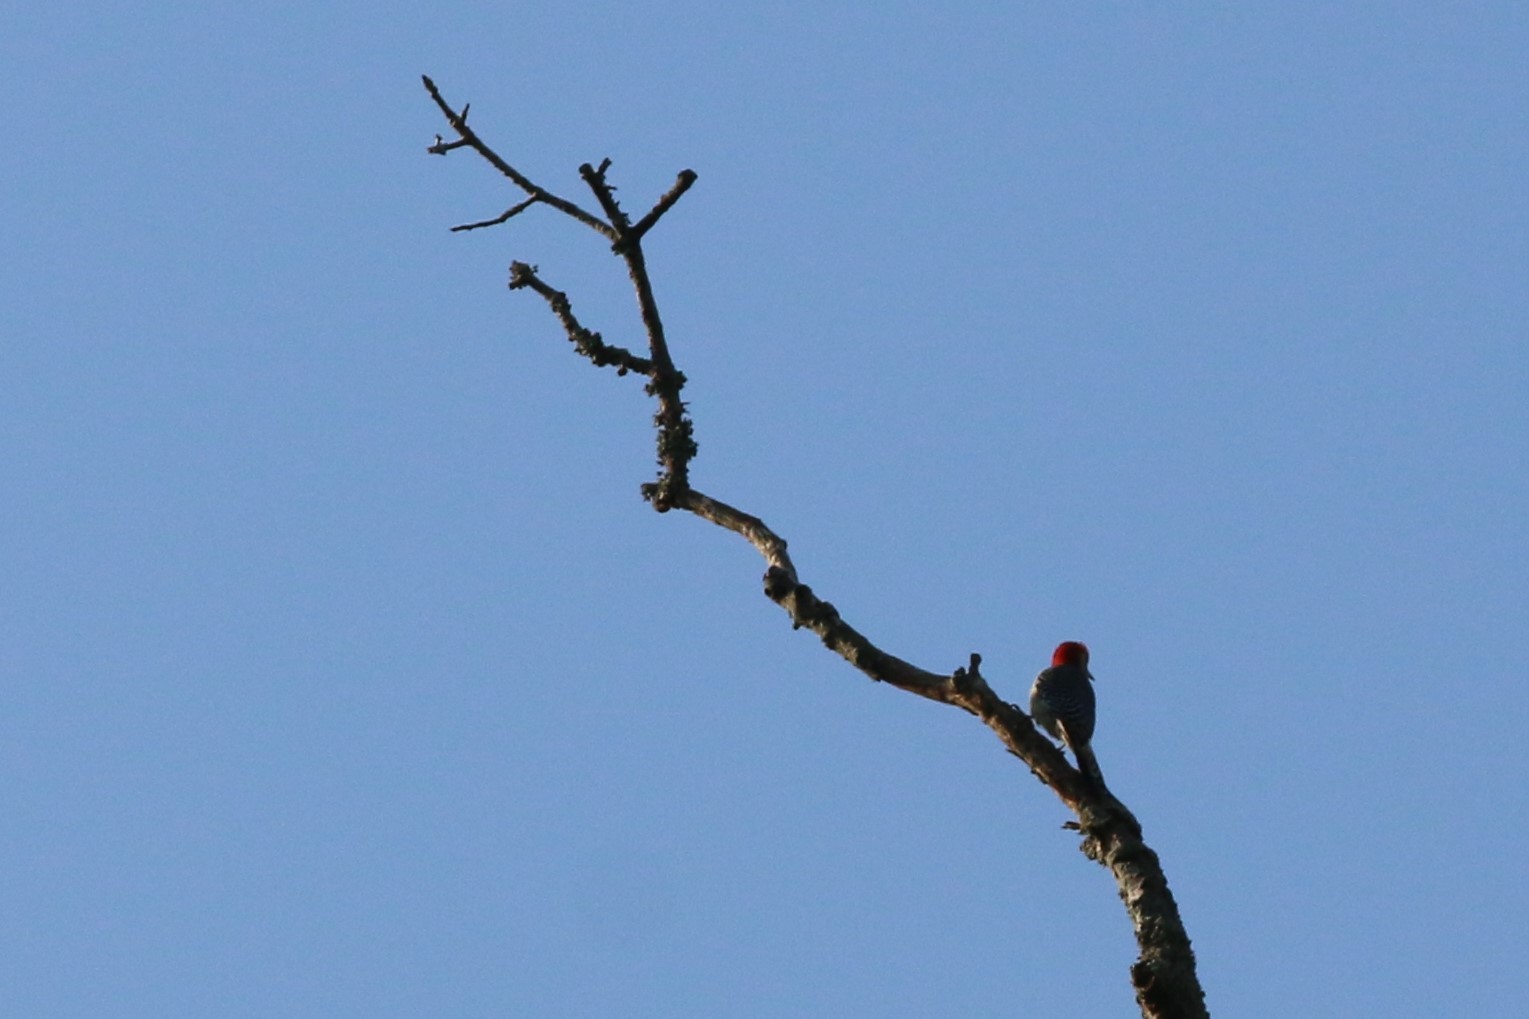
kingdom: Animalia
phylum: Chordata
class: Aves
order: Piciformes
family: Picidae
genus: Melanerpes
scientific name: Melanerpes carolinus
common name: Red-bellied woodpecker
